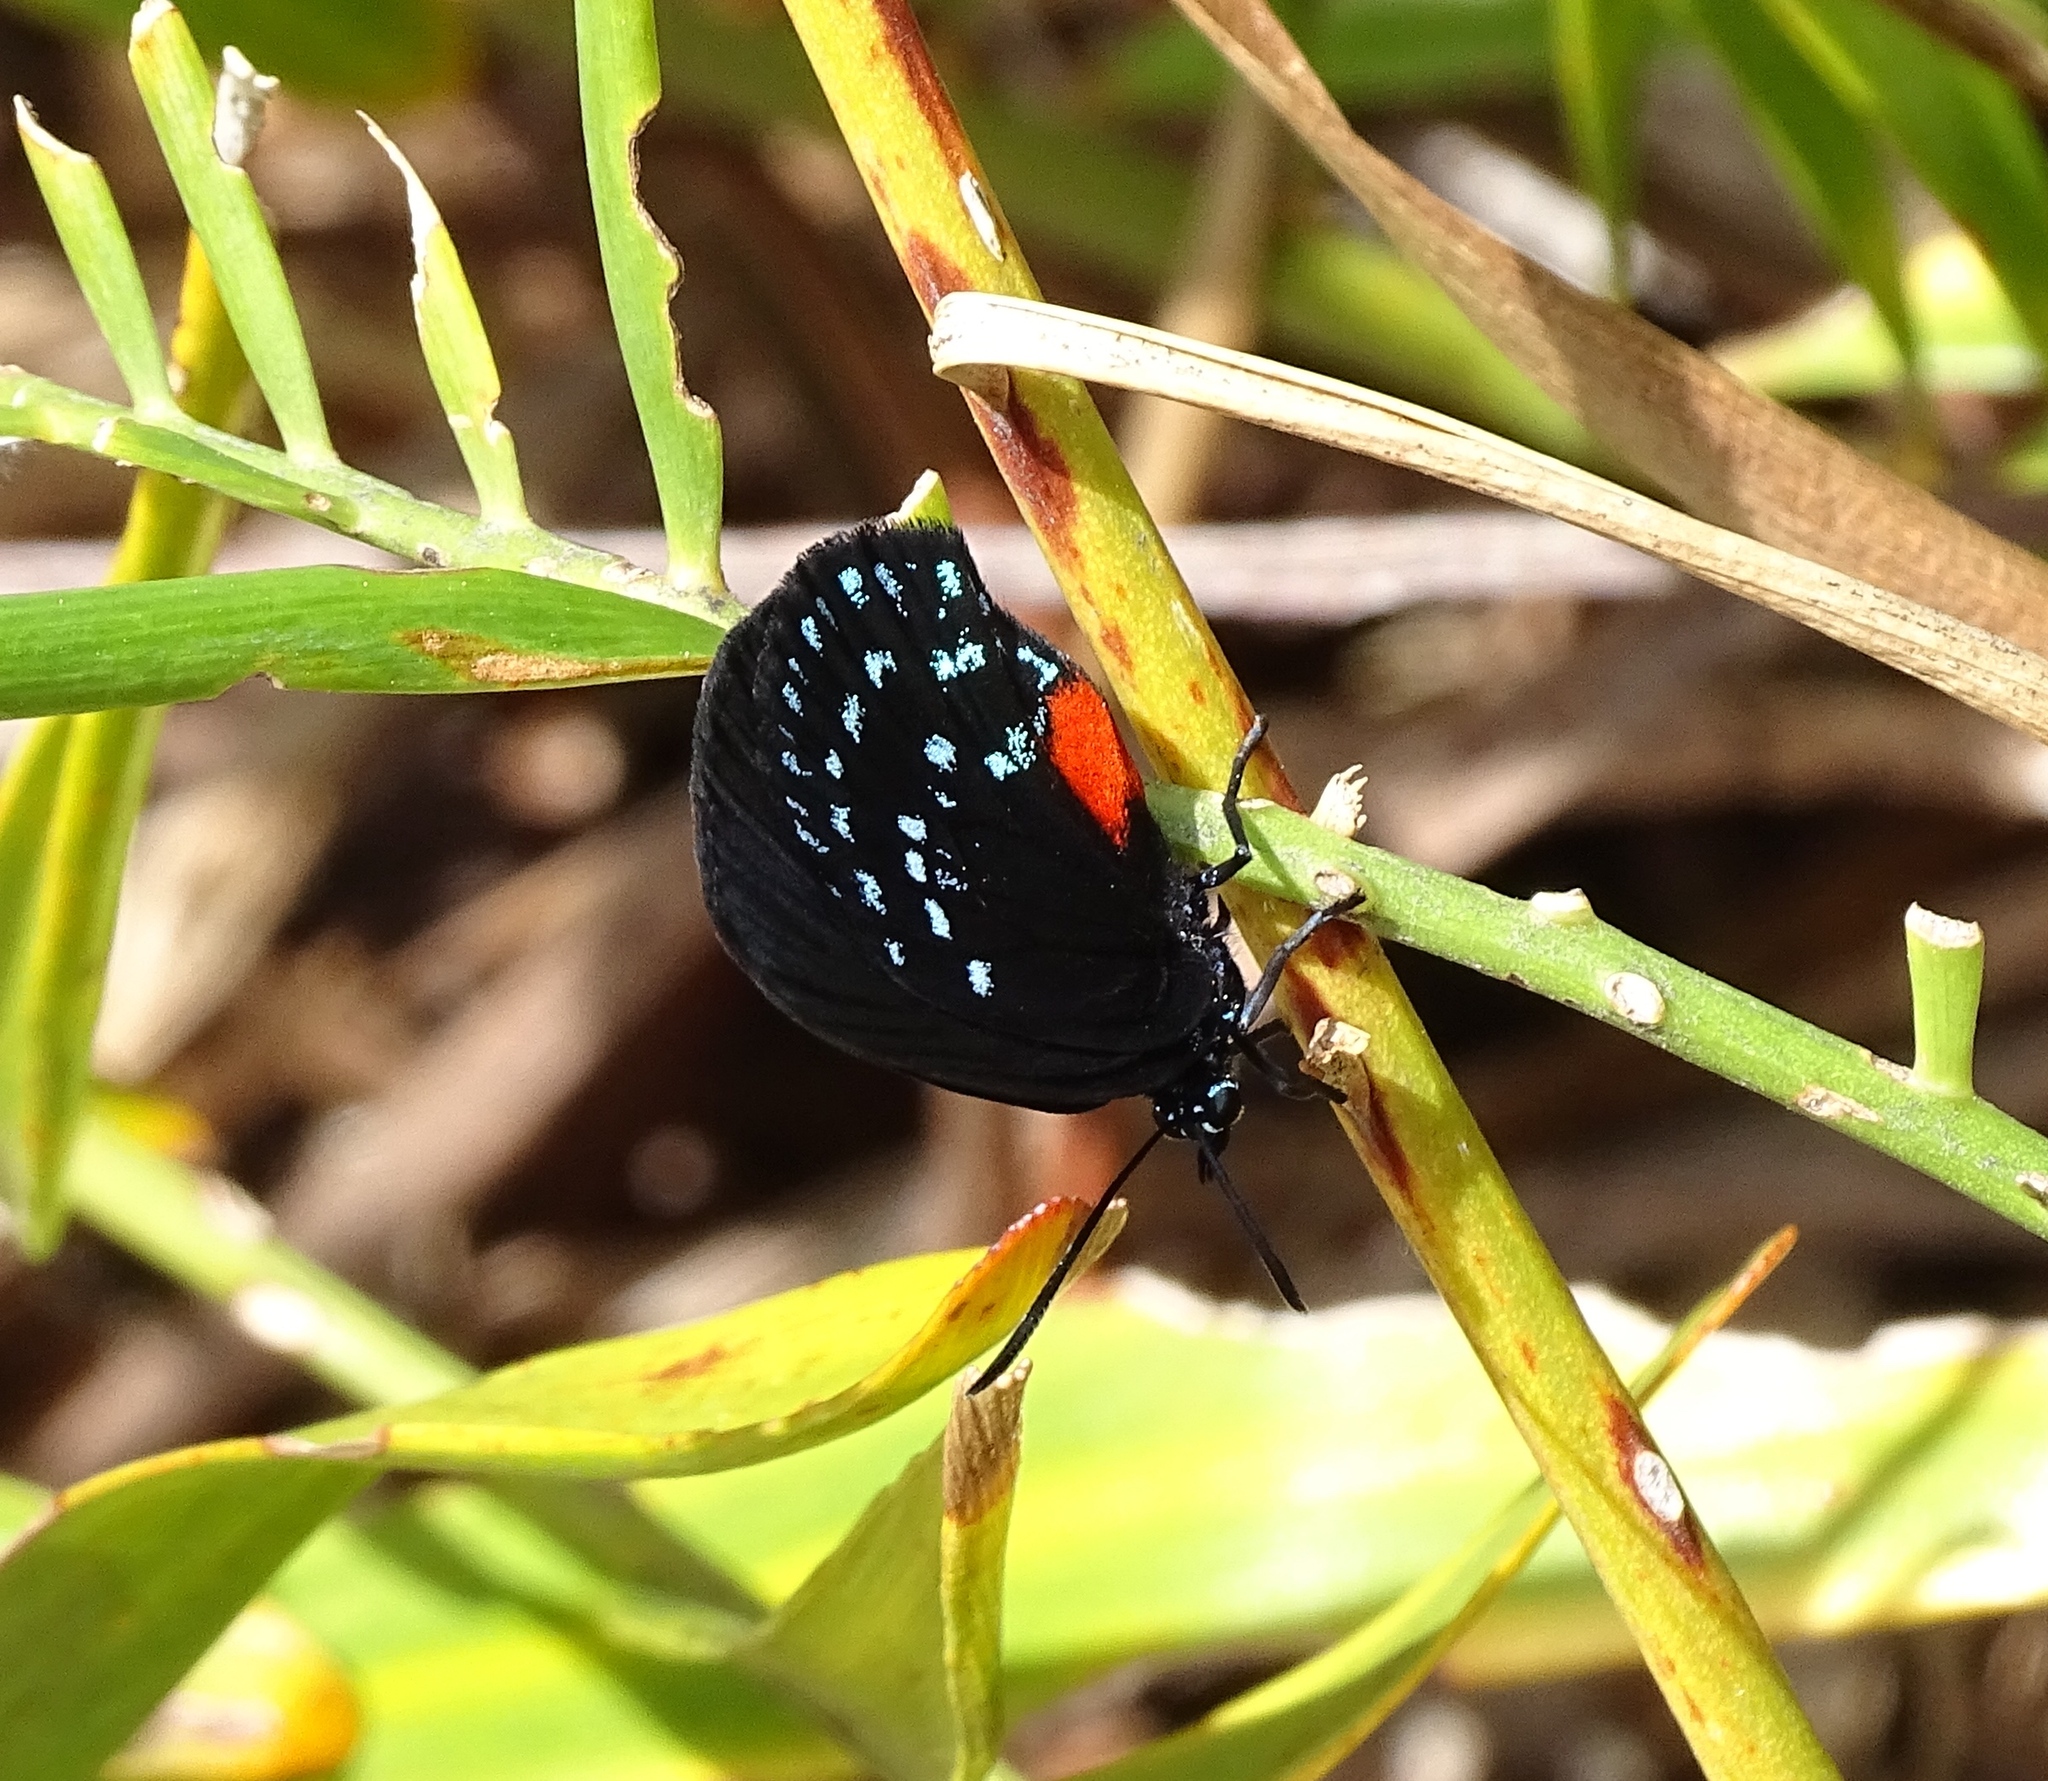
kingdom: Animalia
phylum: Arthropoda
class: Insecta
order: Lepidoptera
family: Lycaenidae
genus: Eumaeus
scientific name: Eumaeus atala
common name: Atala
